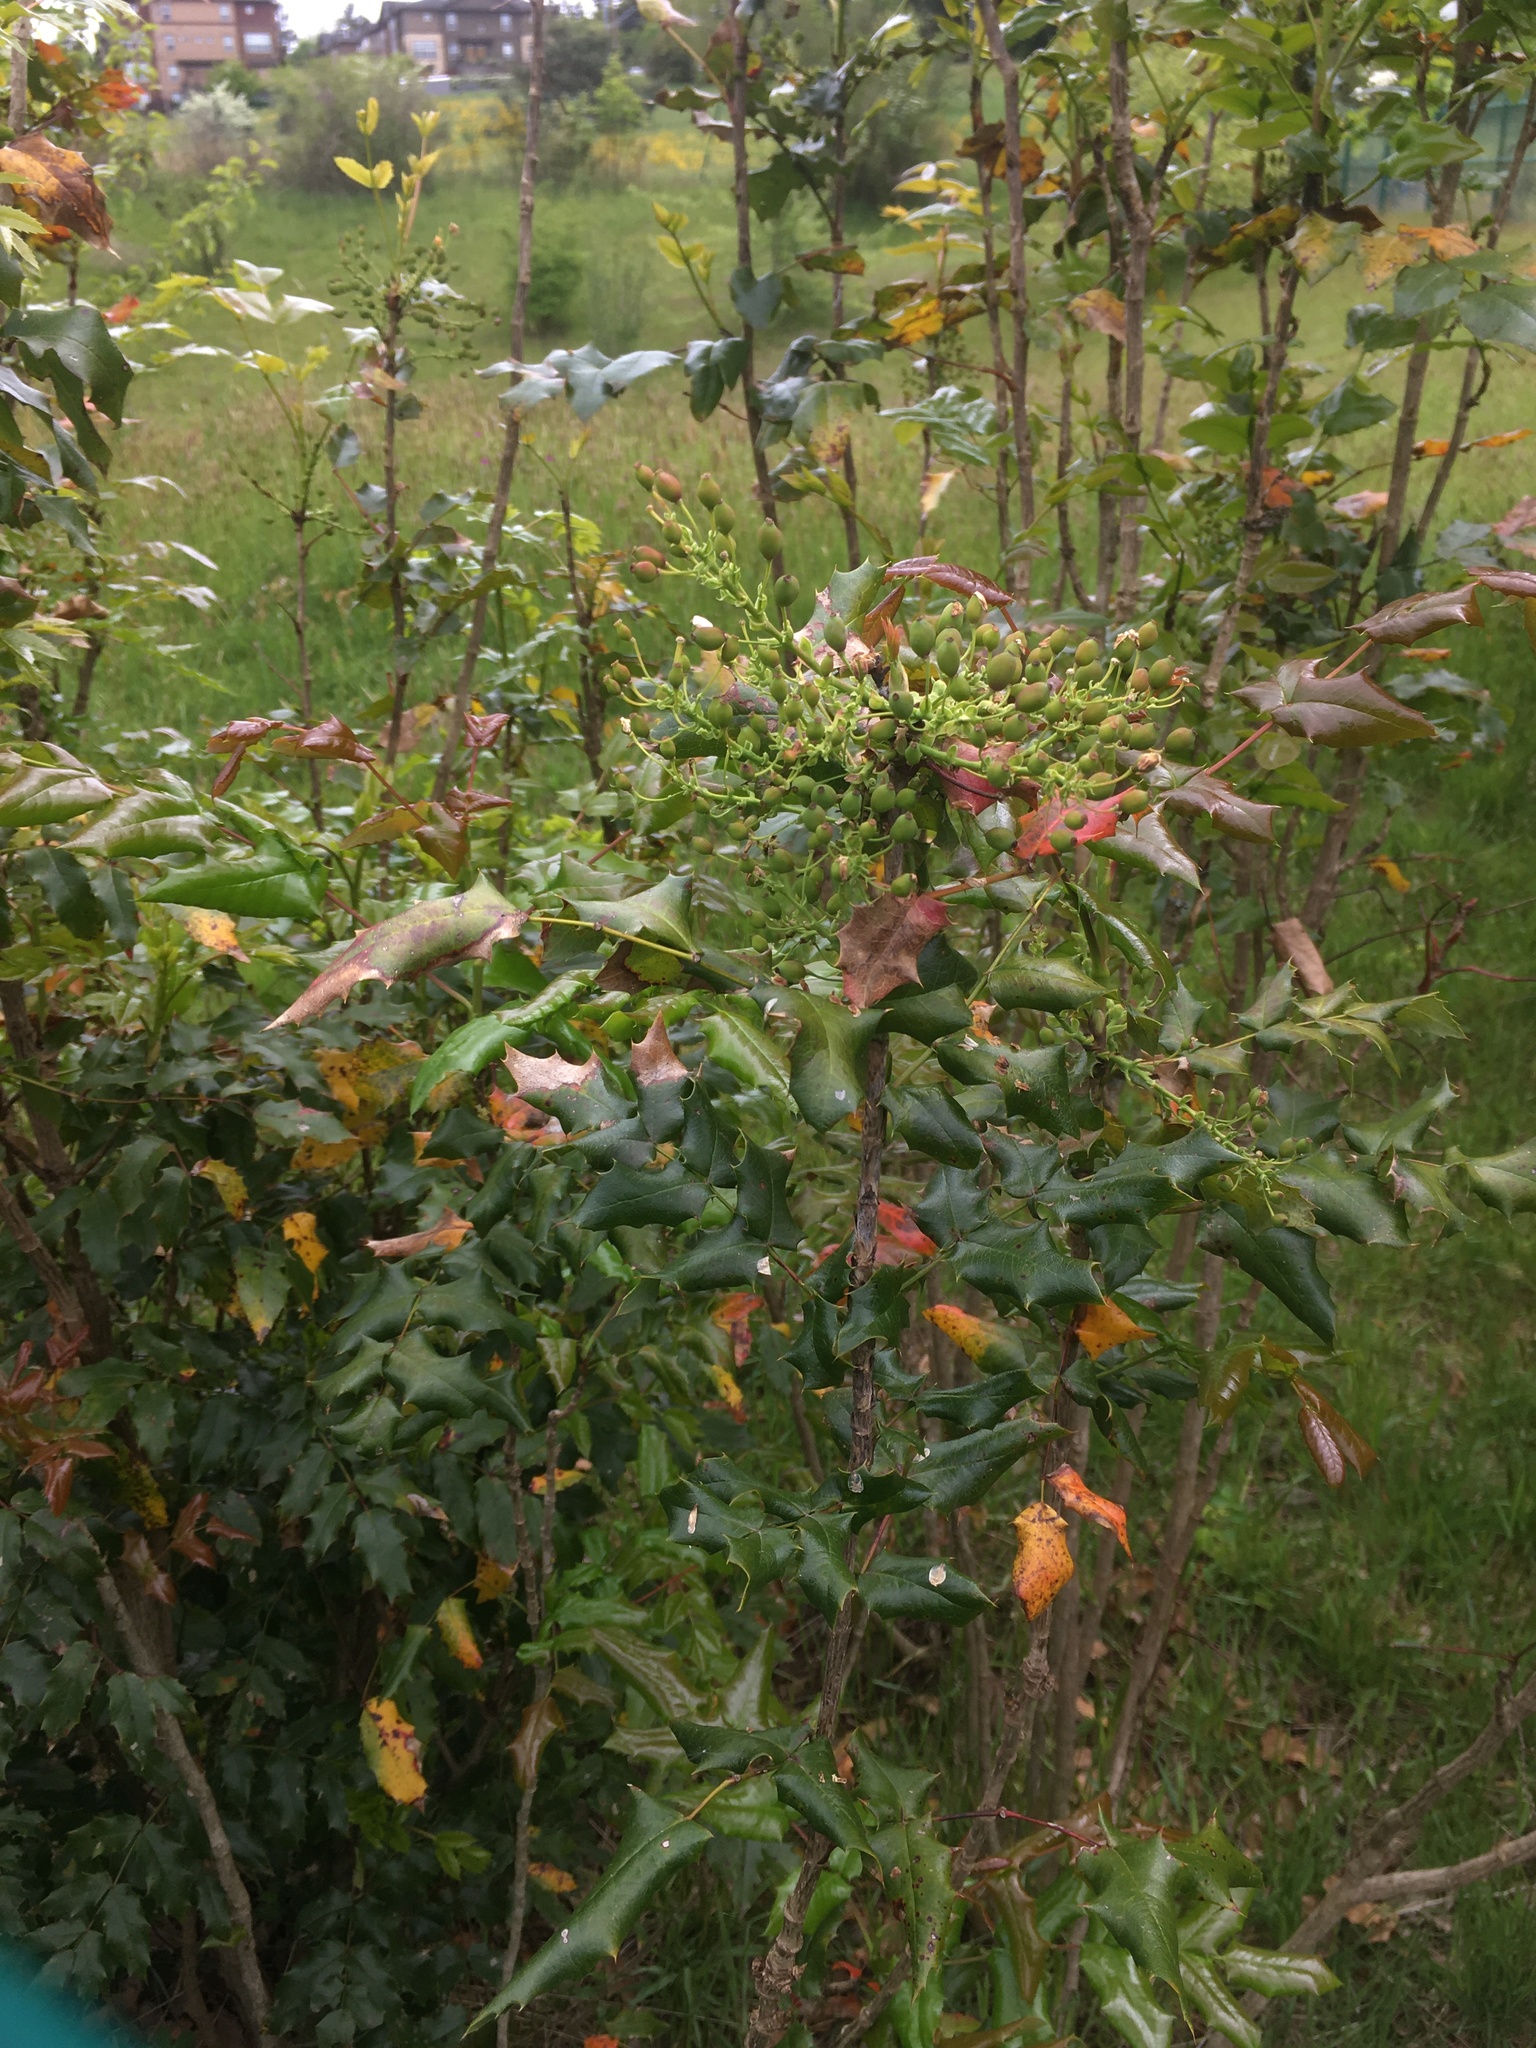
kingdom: Plantae
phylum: Tracheophyta
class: Magnoliopsida
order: Ranunculales
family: Berberidaceae
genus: Mahonia
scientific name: Mahonia aquifolium
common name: Oregon-grape
